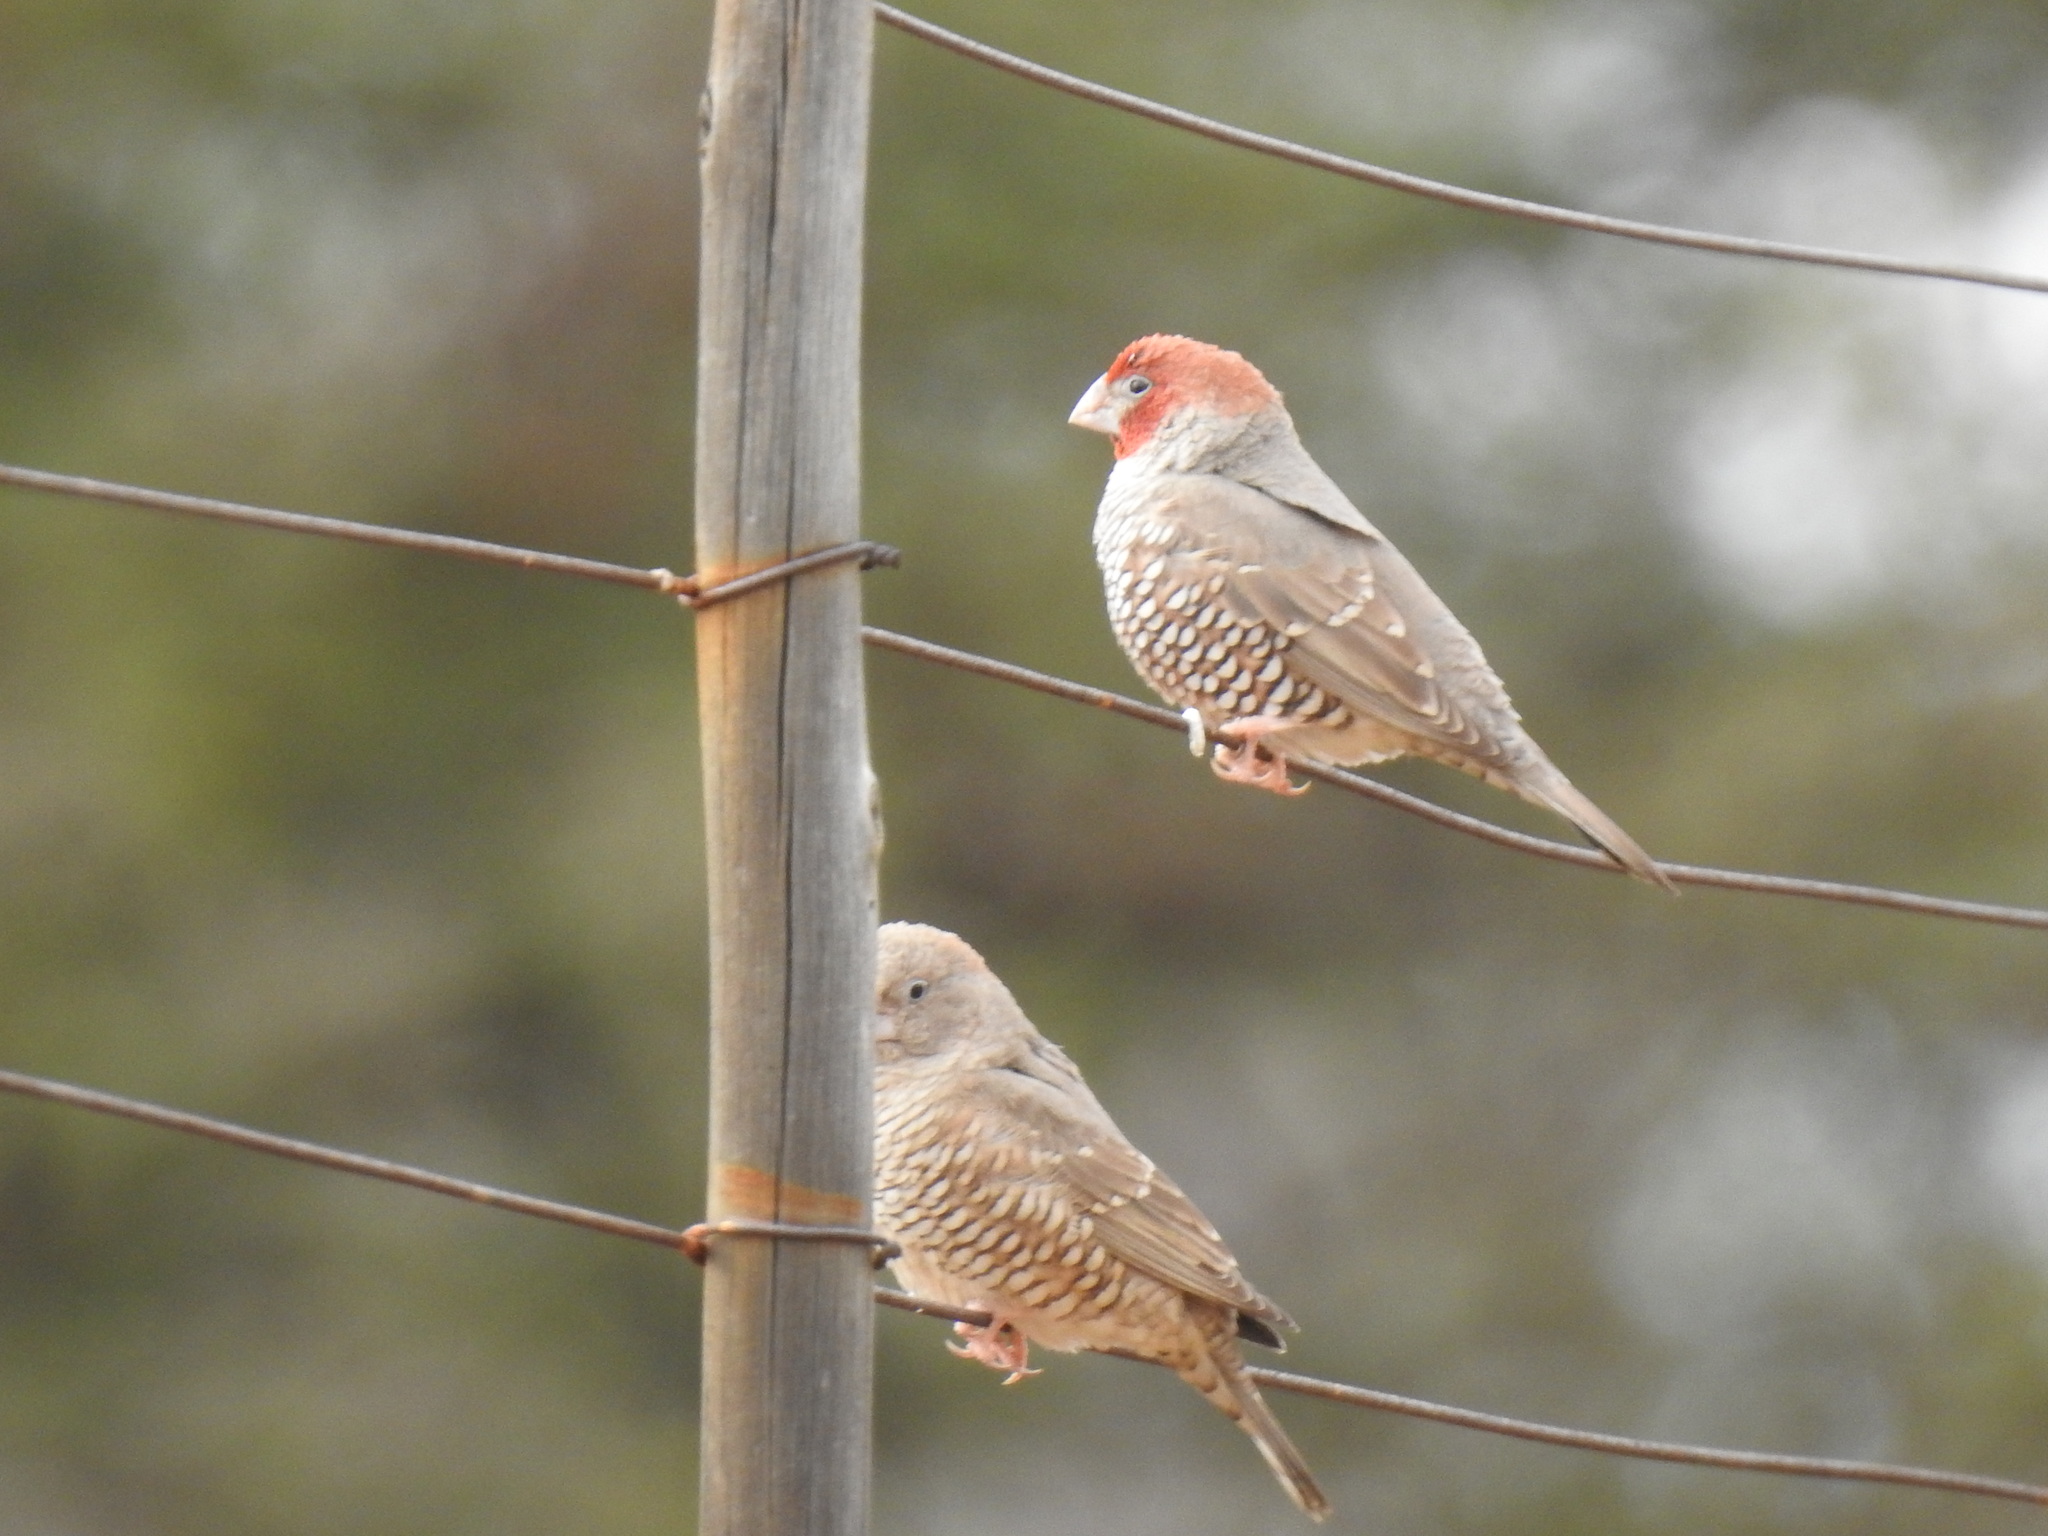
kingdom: Animalia
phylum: Chordata
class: Aves
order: Passeriformes
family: Estrildidae
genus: Amadina
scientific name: Amadina erythrocephala
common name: Red-headed finch
